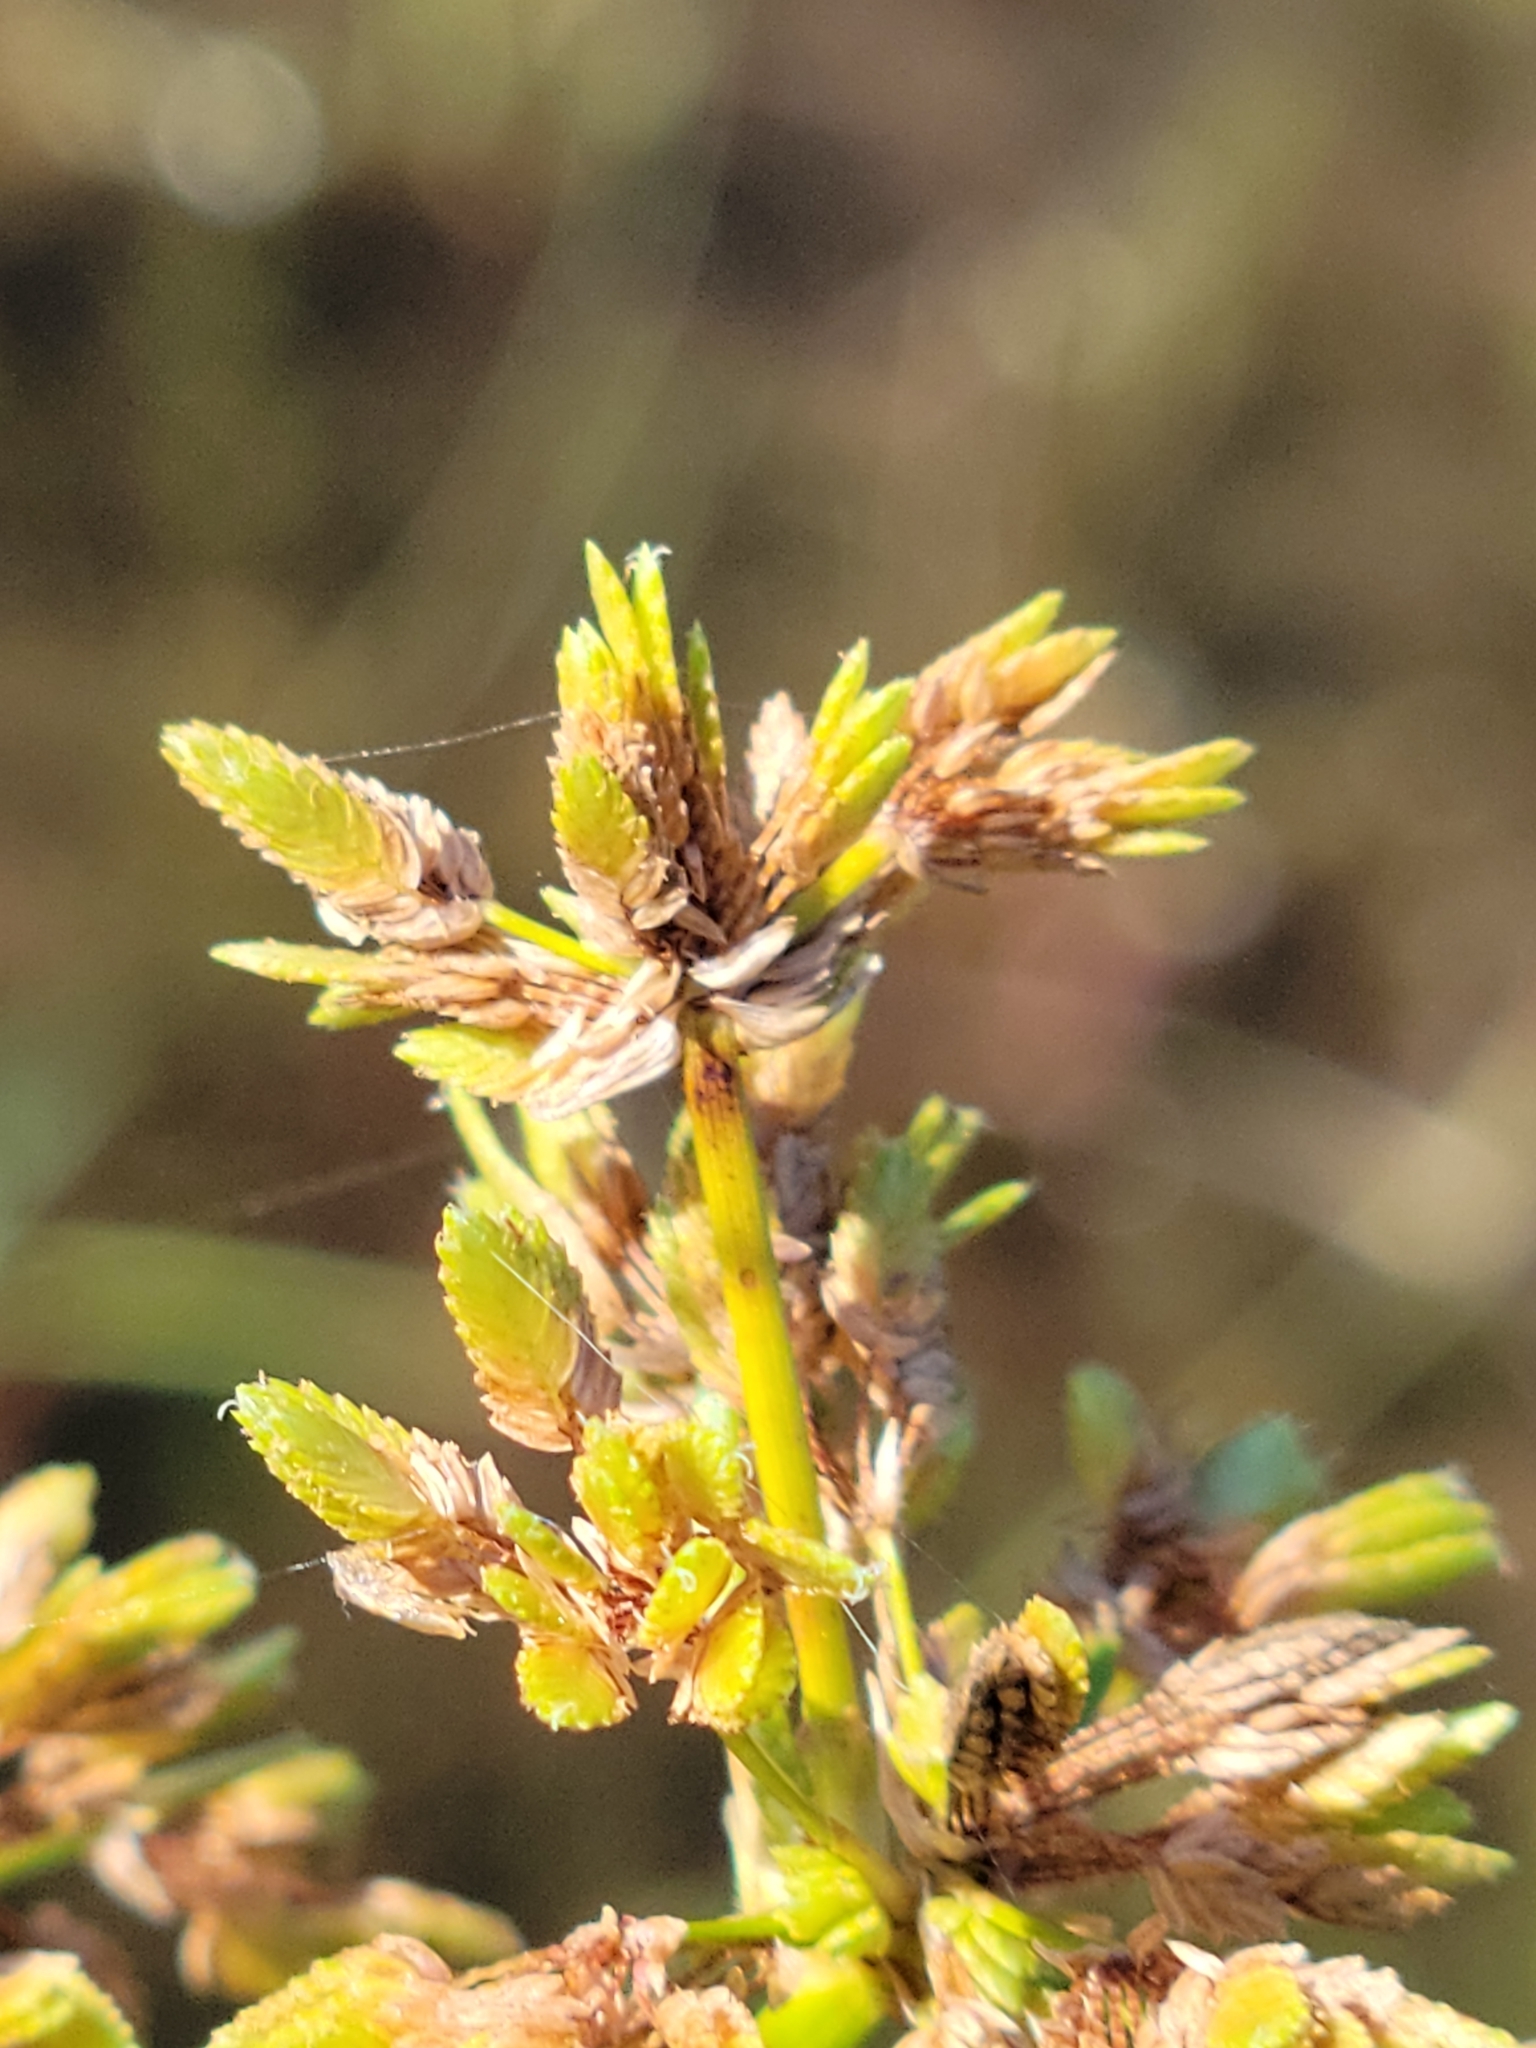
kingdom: Plantae
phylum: Tracheophyta
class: Liliopsida
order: Poales
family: Cyperaceae
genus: Cyperus
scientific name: Cyperus surinamensis
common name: Tropical flat sedge
